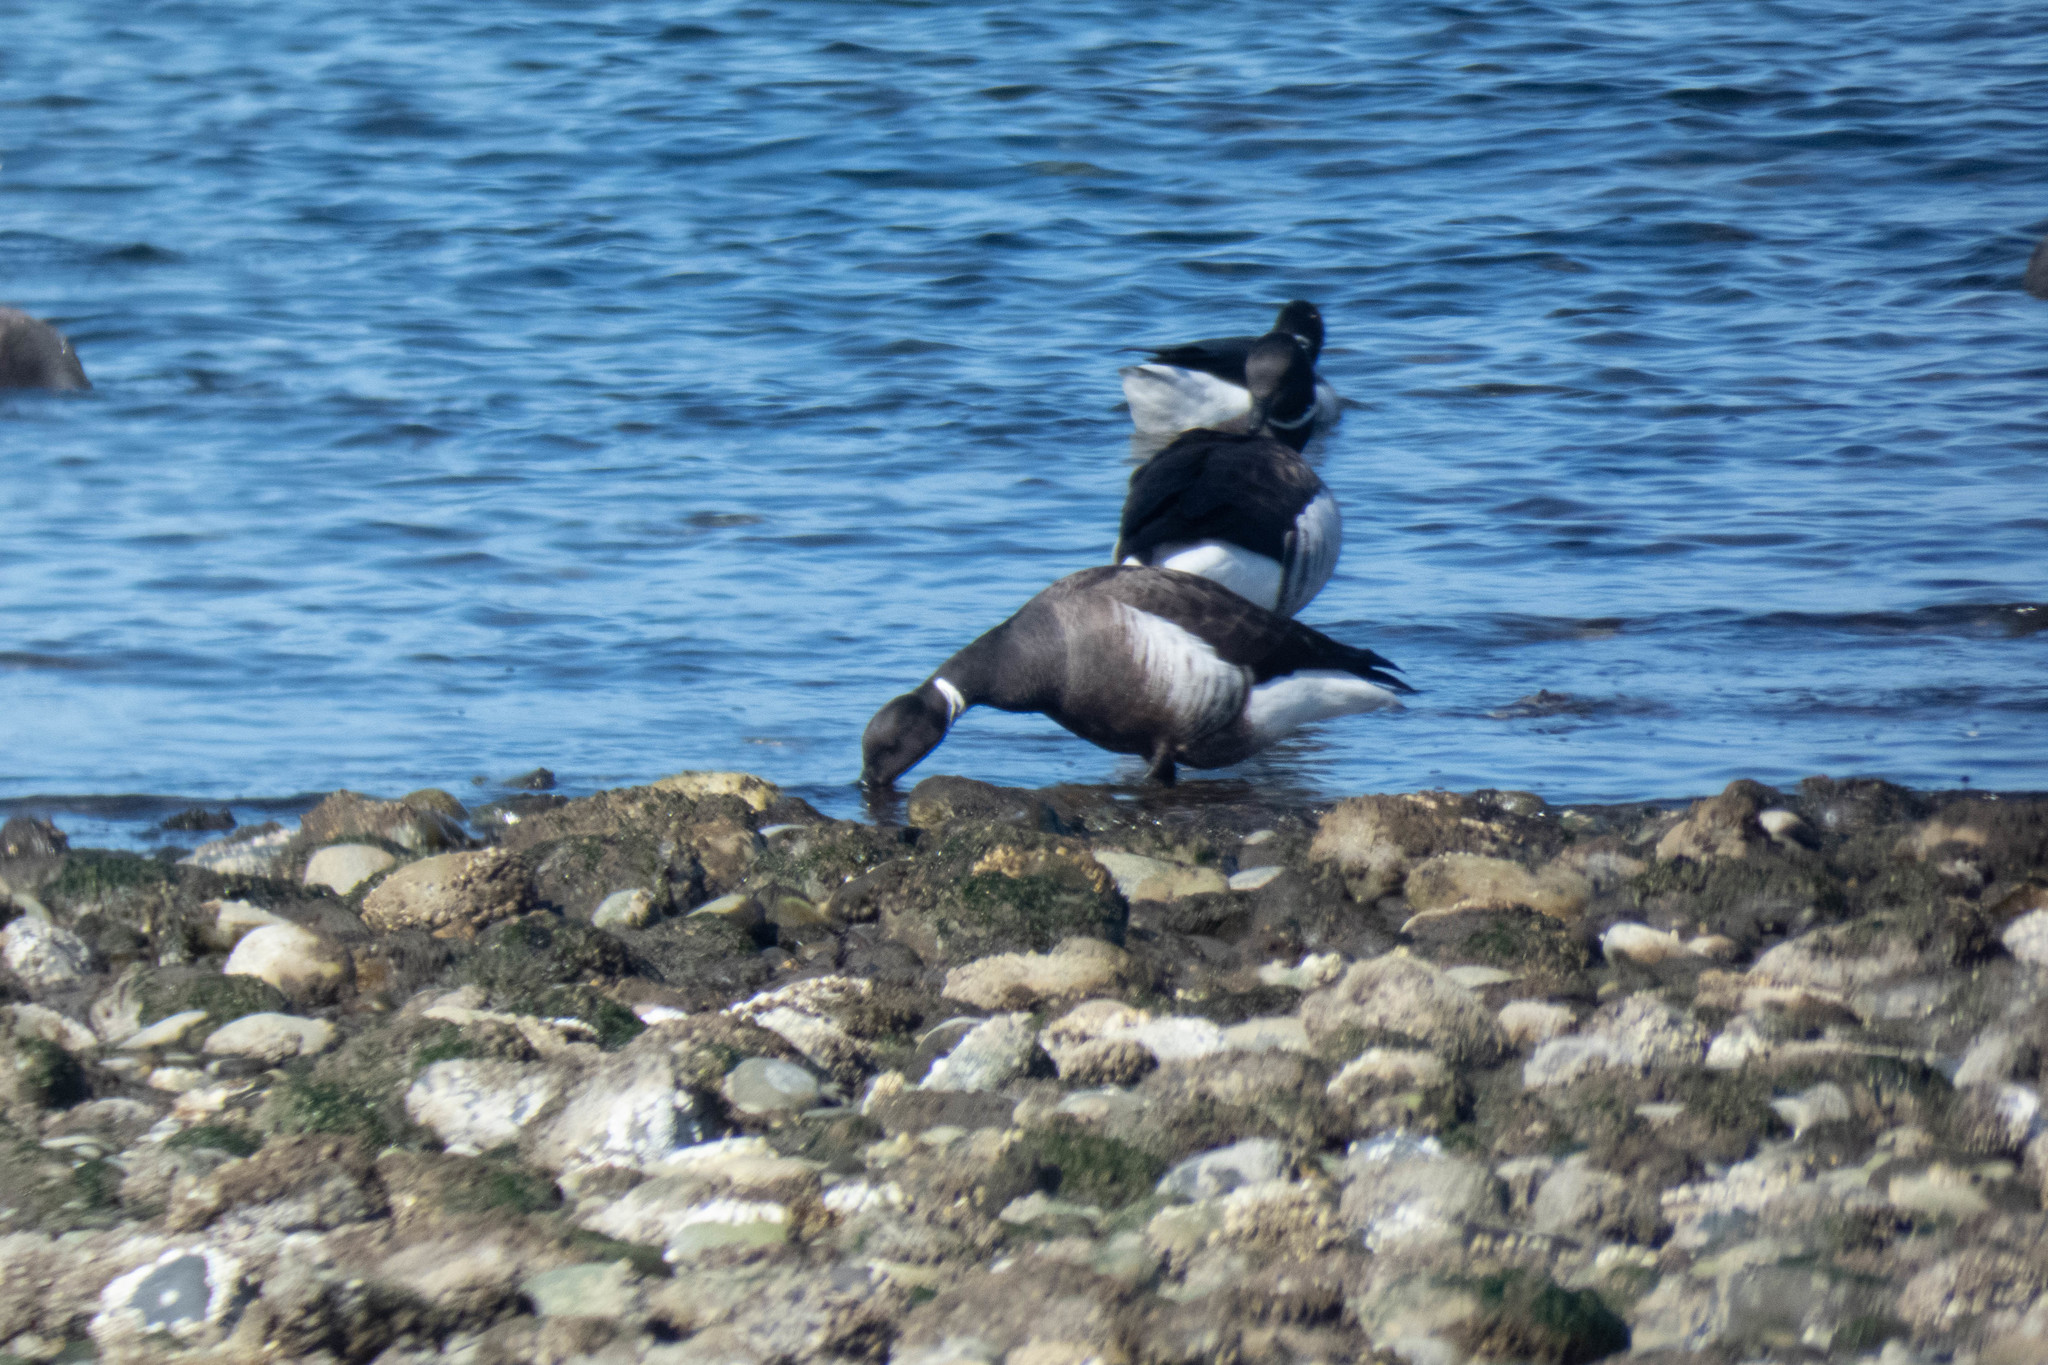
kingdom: Animalia
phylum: Chordata
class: Aves
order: Anseriformes
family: Anatidae
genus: Branta
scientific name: Branta bernicla
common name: Brant goose
